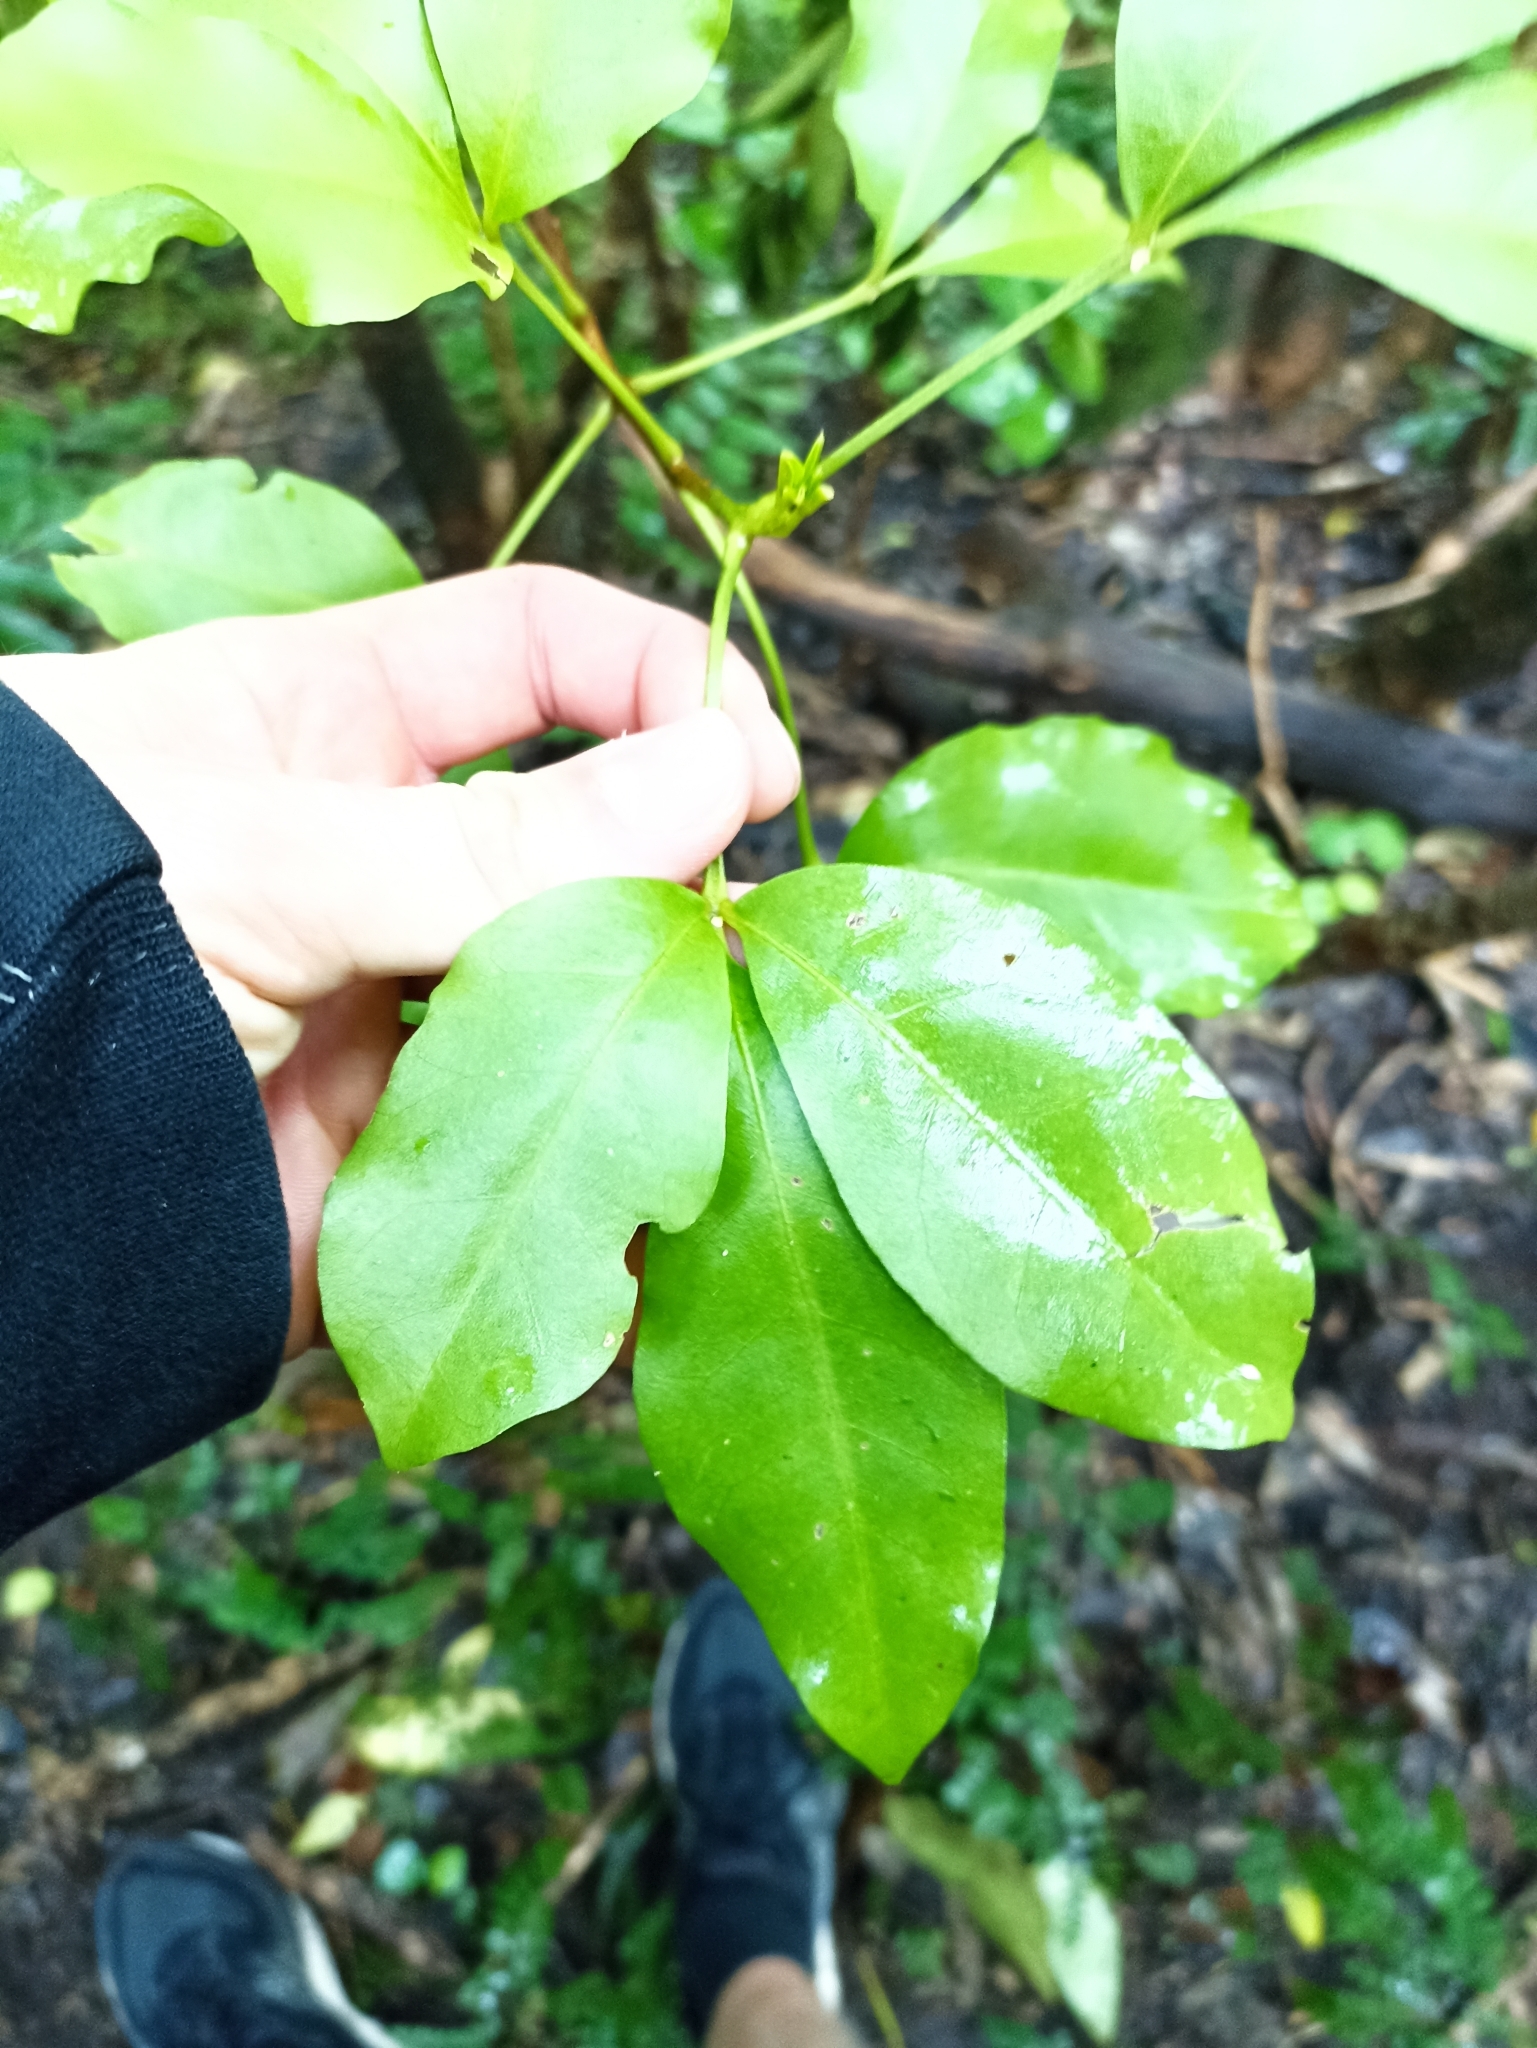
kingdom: Plantae
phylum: Tracheophyta
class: Magnoliopsida
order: Sapindales
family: Rutaceae
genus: Melicope
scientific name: Melicope ternata
